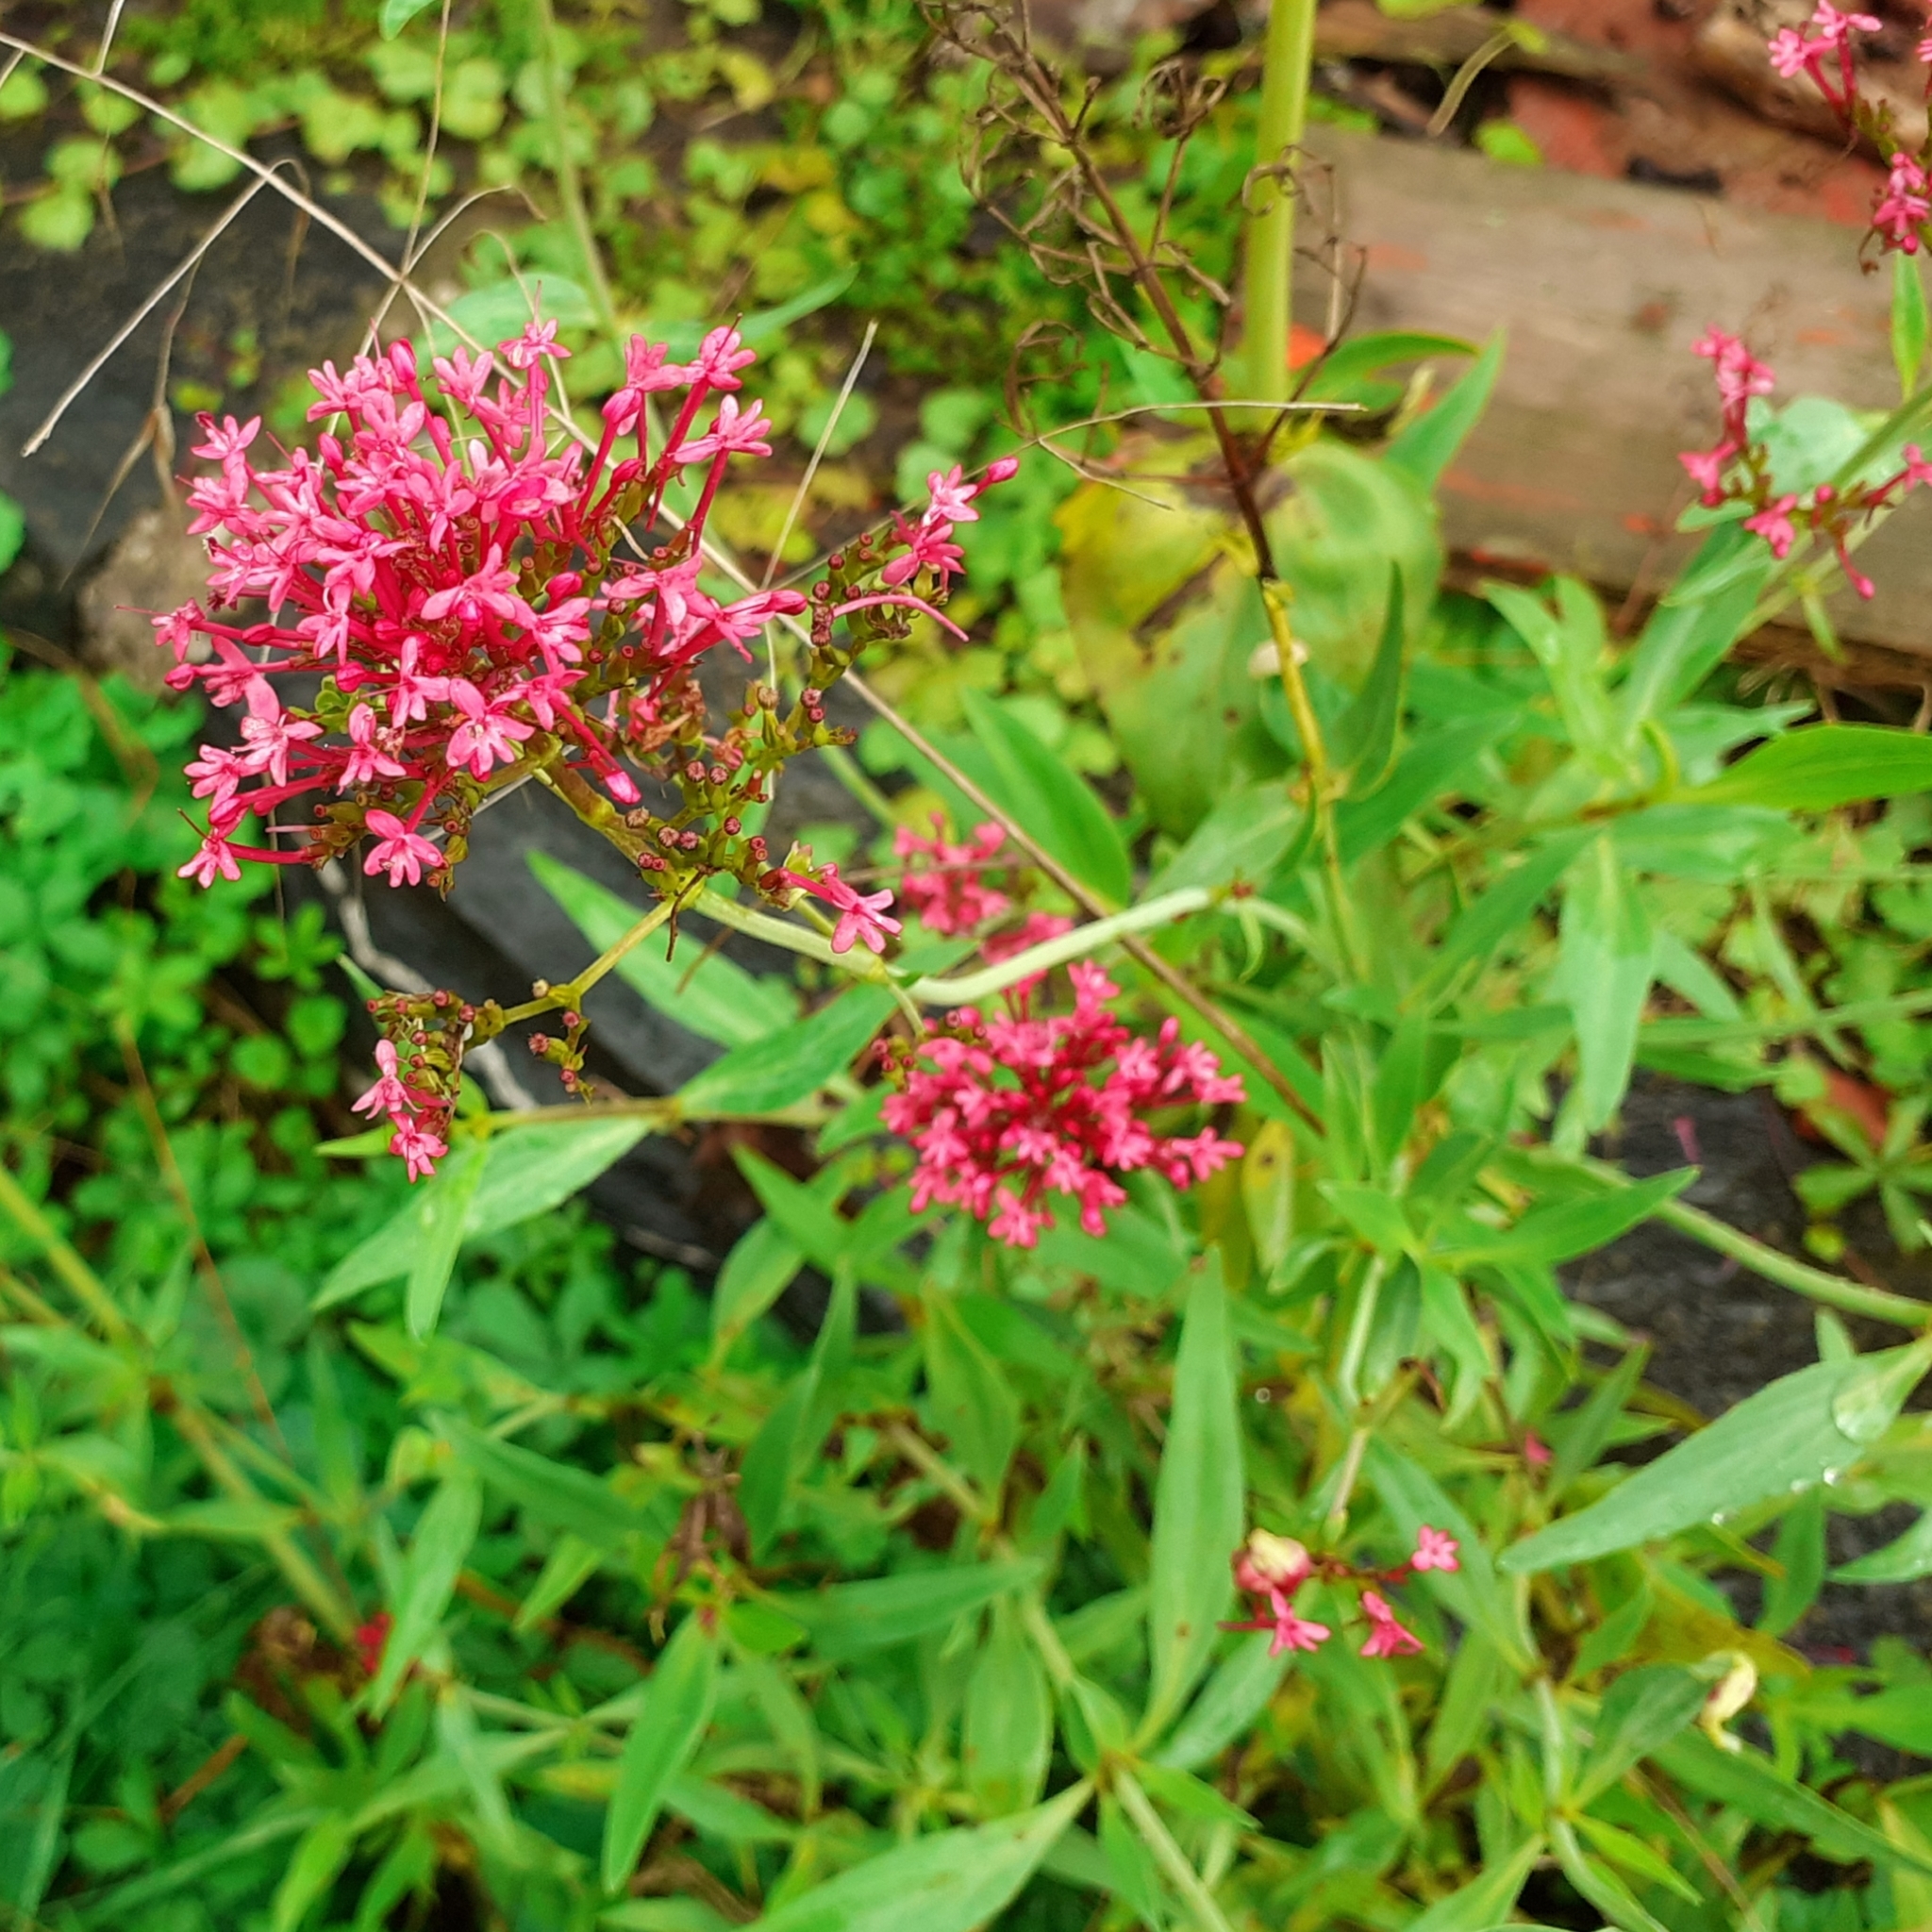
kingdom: Plantae
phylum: Tracheophyta
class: Magnoliopsida
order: Dipsacales
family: Caprifoliaceae
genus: Centranthus
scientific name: Centranthus ruber
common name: Red valerian
